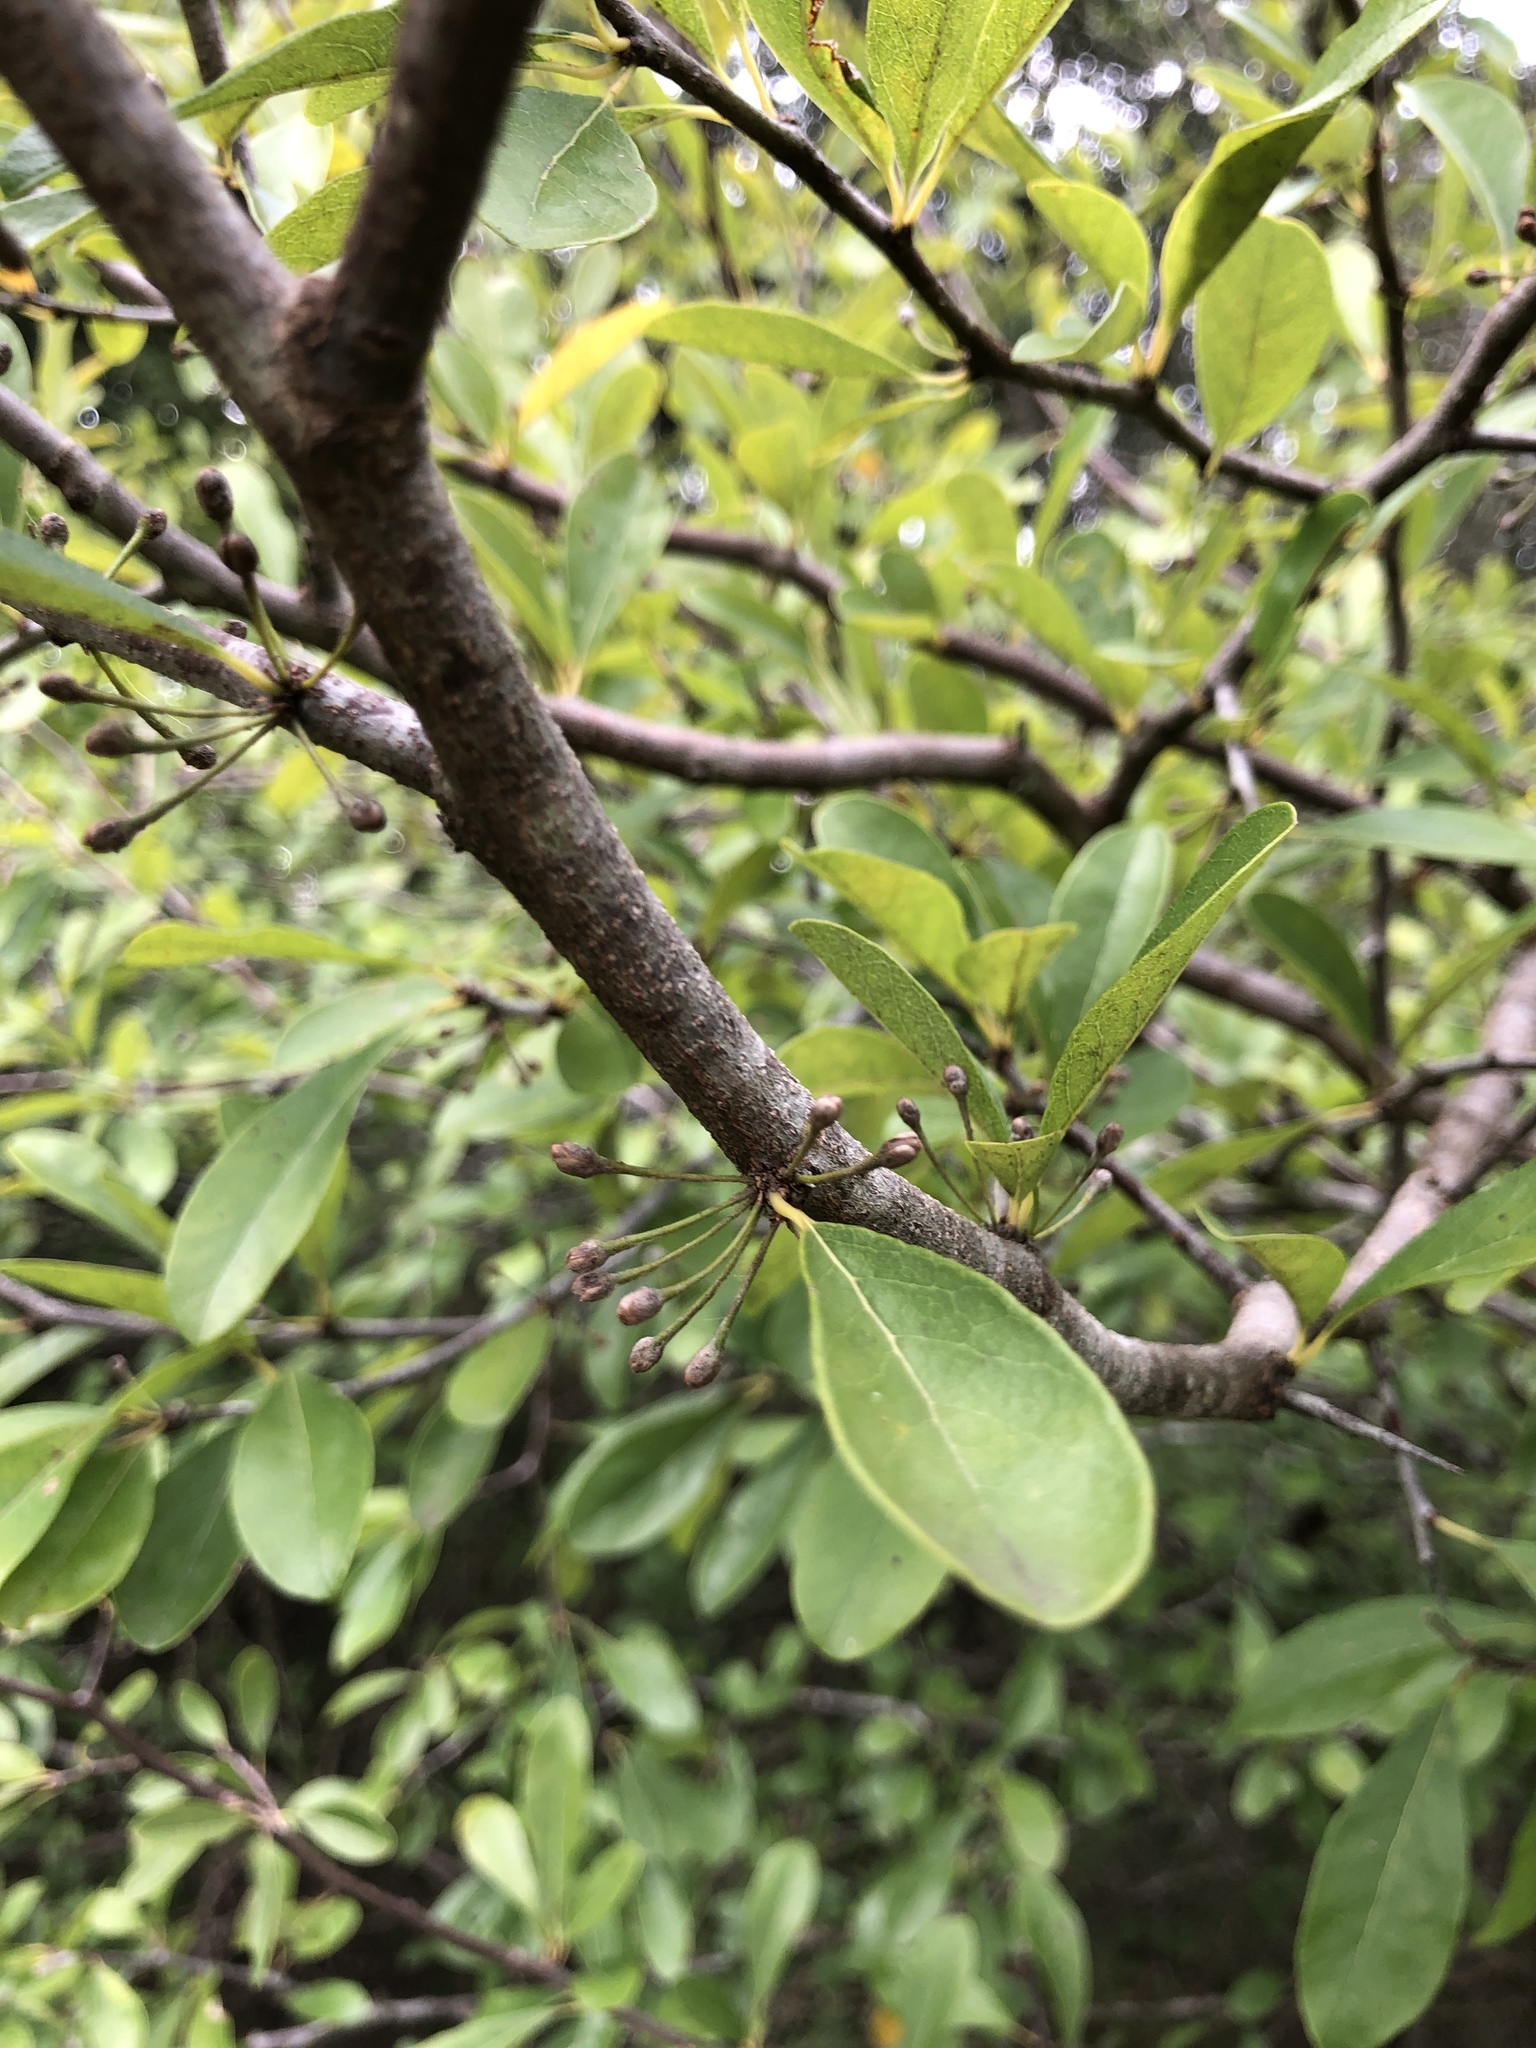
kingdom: Plantae
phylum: Tracheophyta
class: Magnoliopsida
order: Ericales
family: Sapotaceae
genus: Sideroxylon
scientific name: Sideroxylon lanuginosum
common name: Chittamwood
